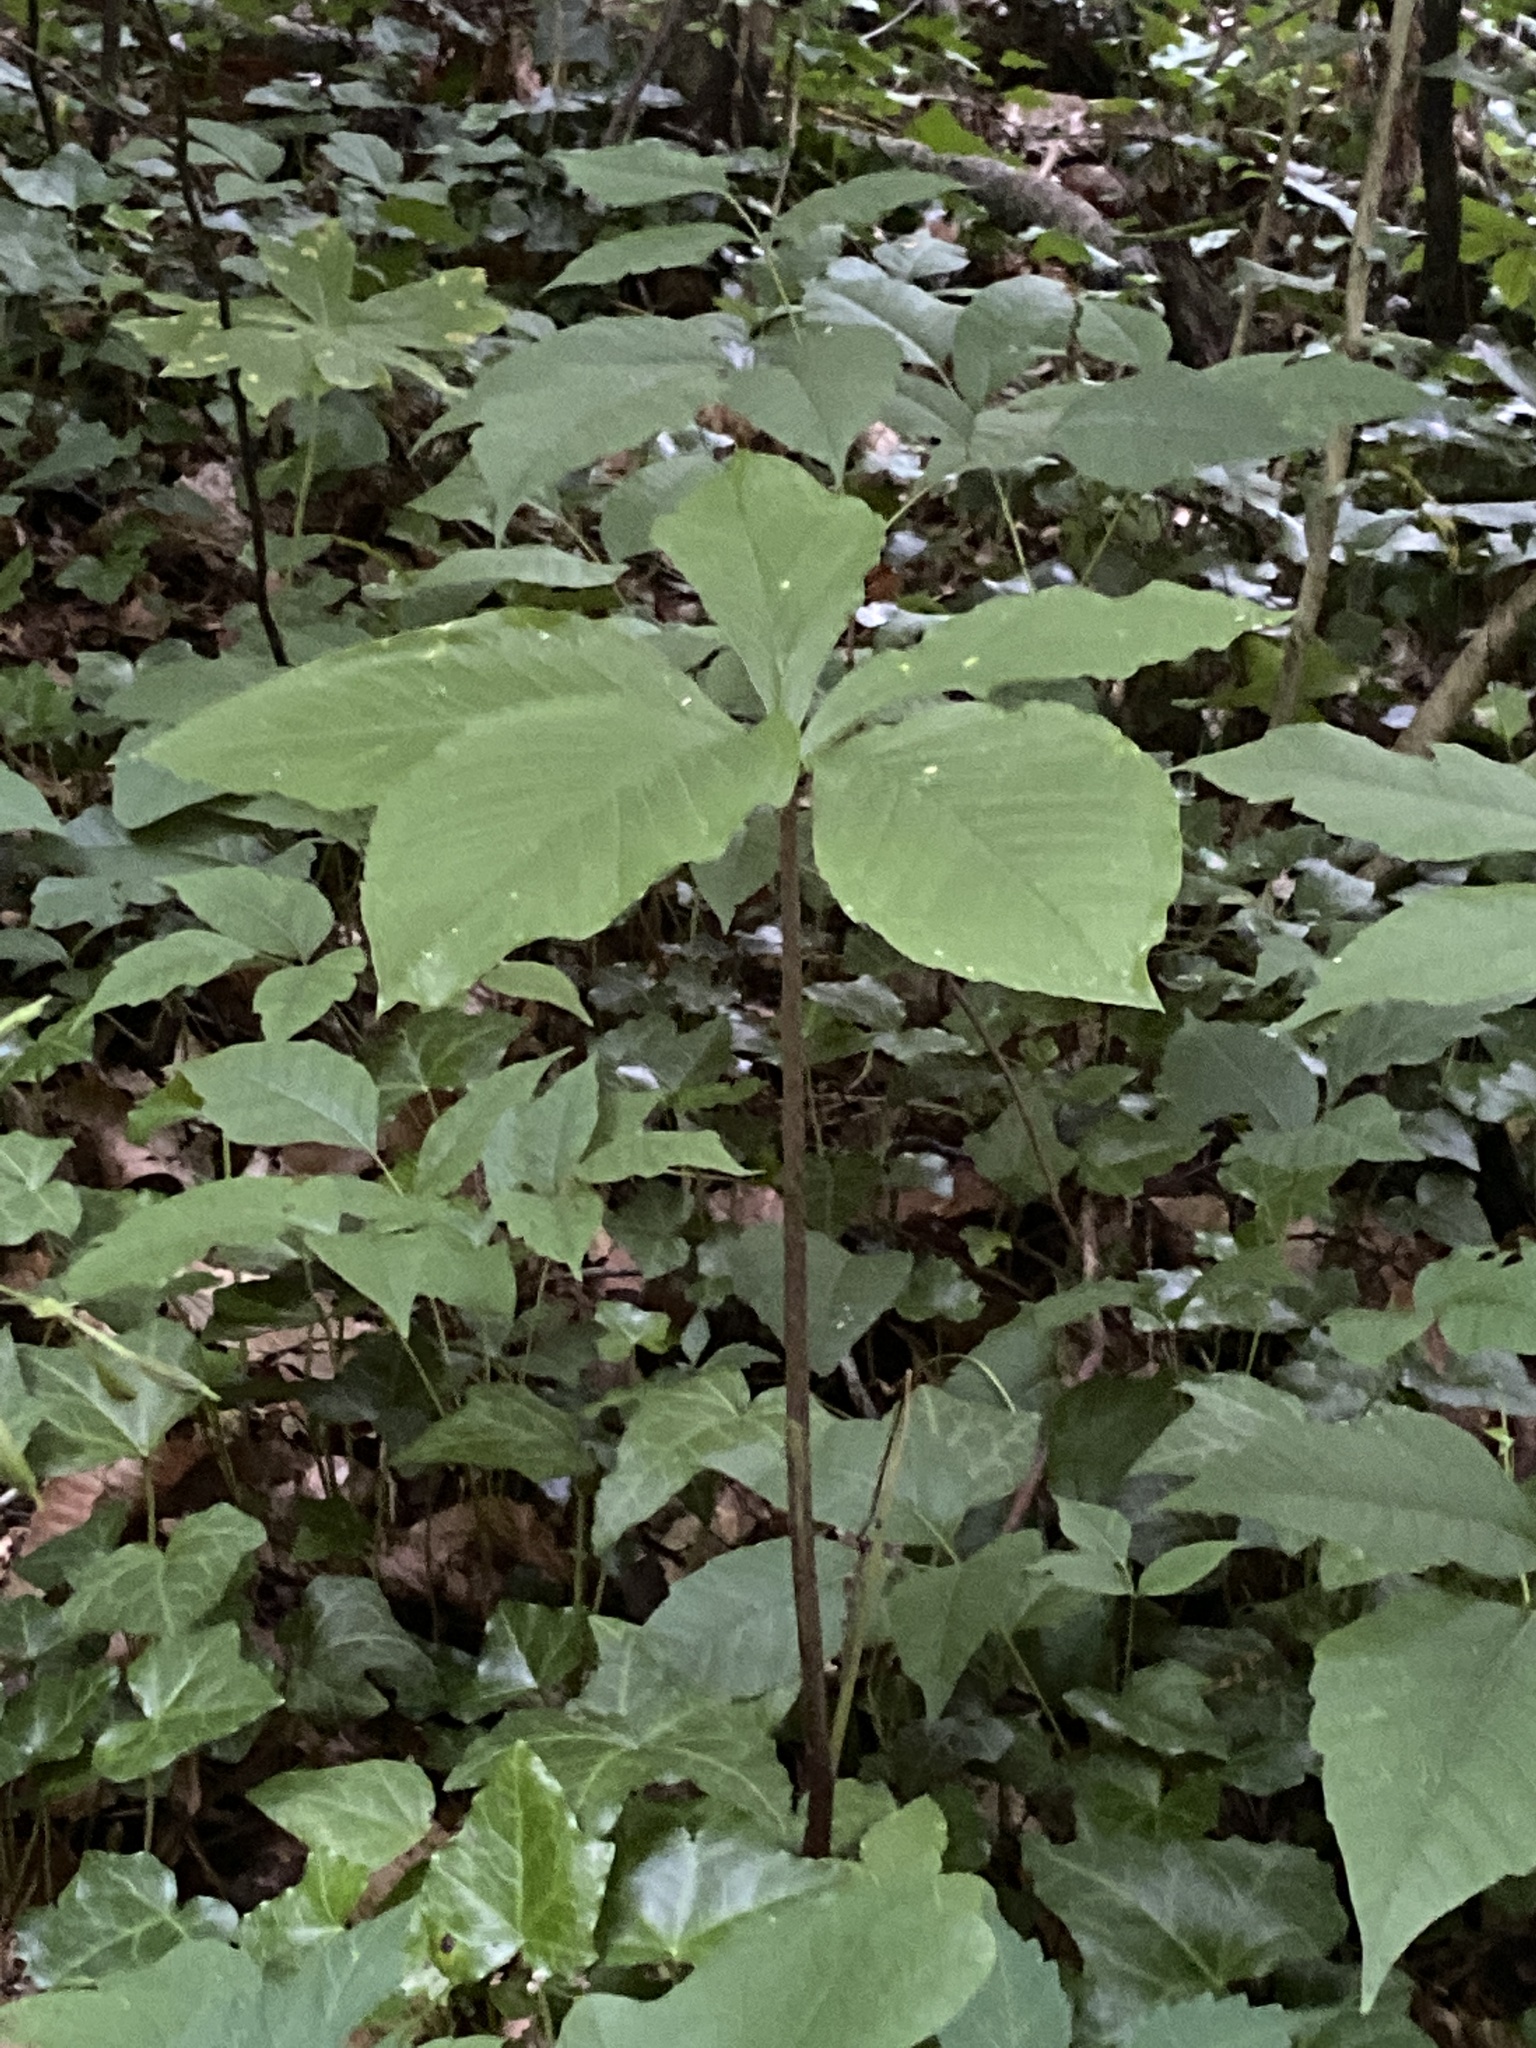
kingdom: Plantae
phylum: Tracheophyta
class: Liliopsida
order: Alismatales
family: Araceae
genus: Arisaema
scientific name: Arisaema quinatum
